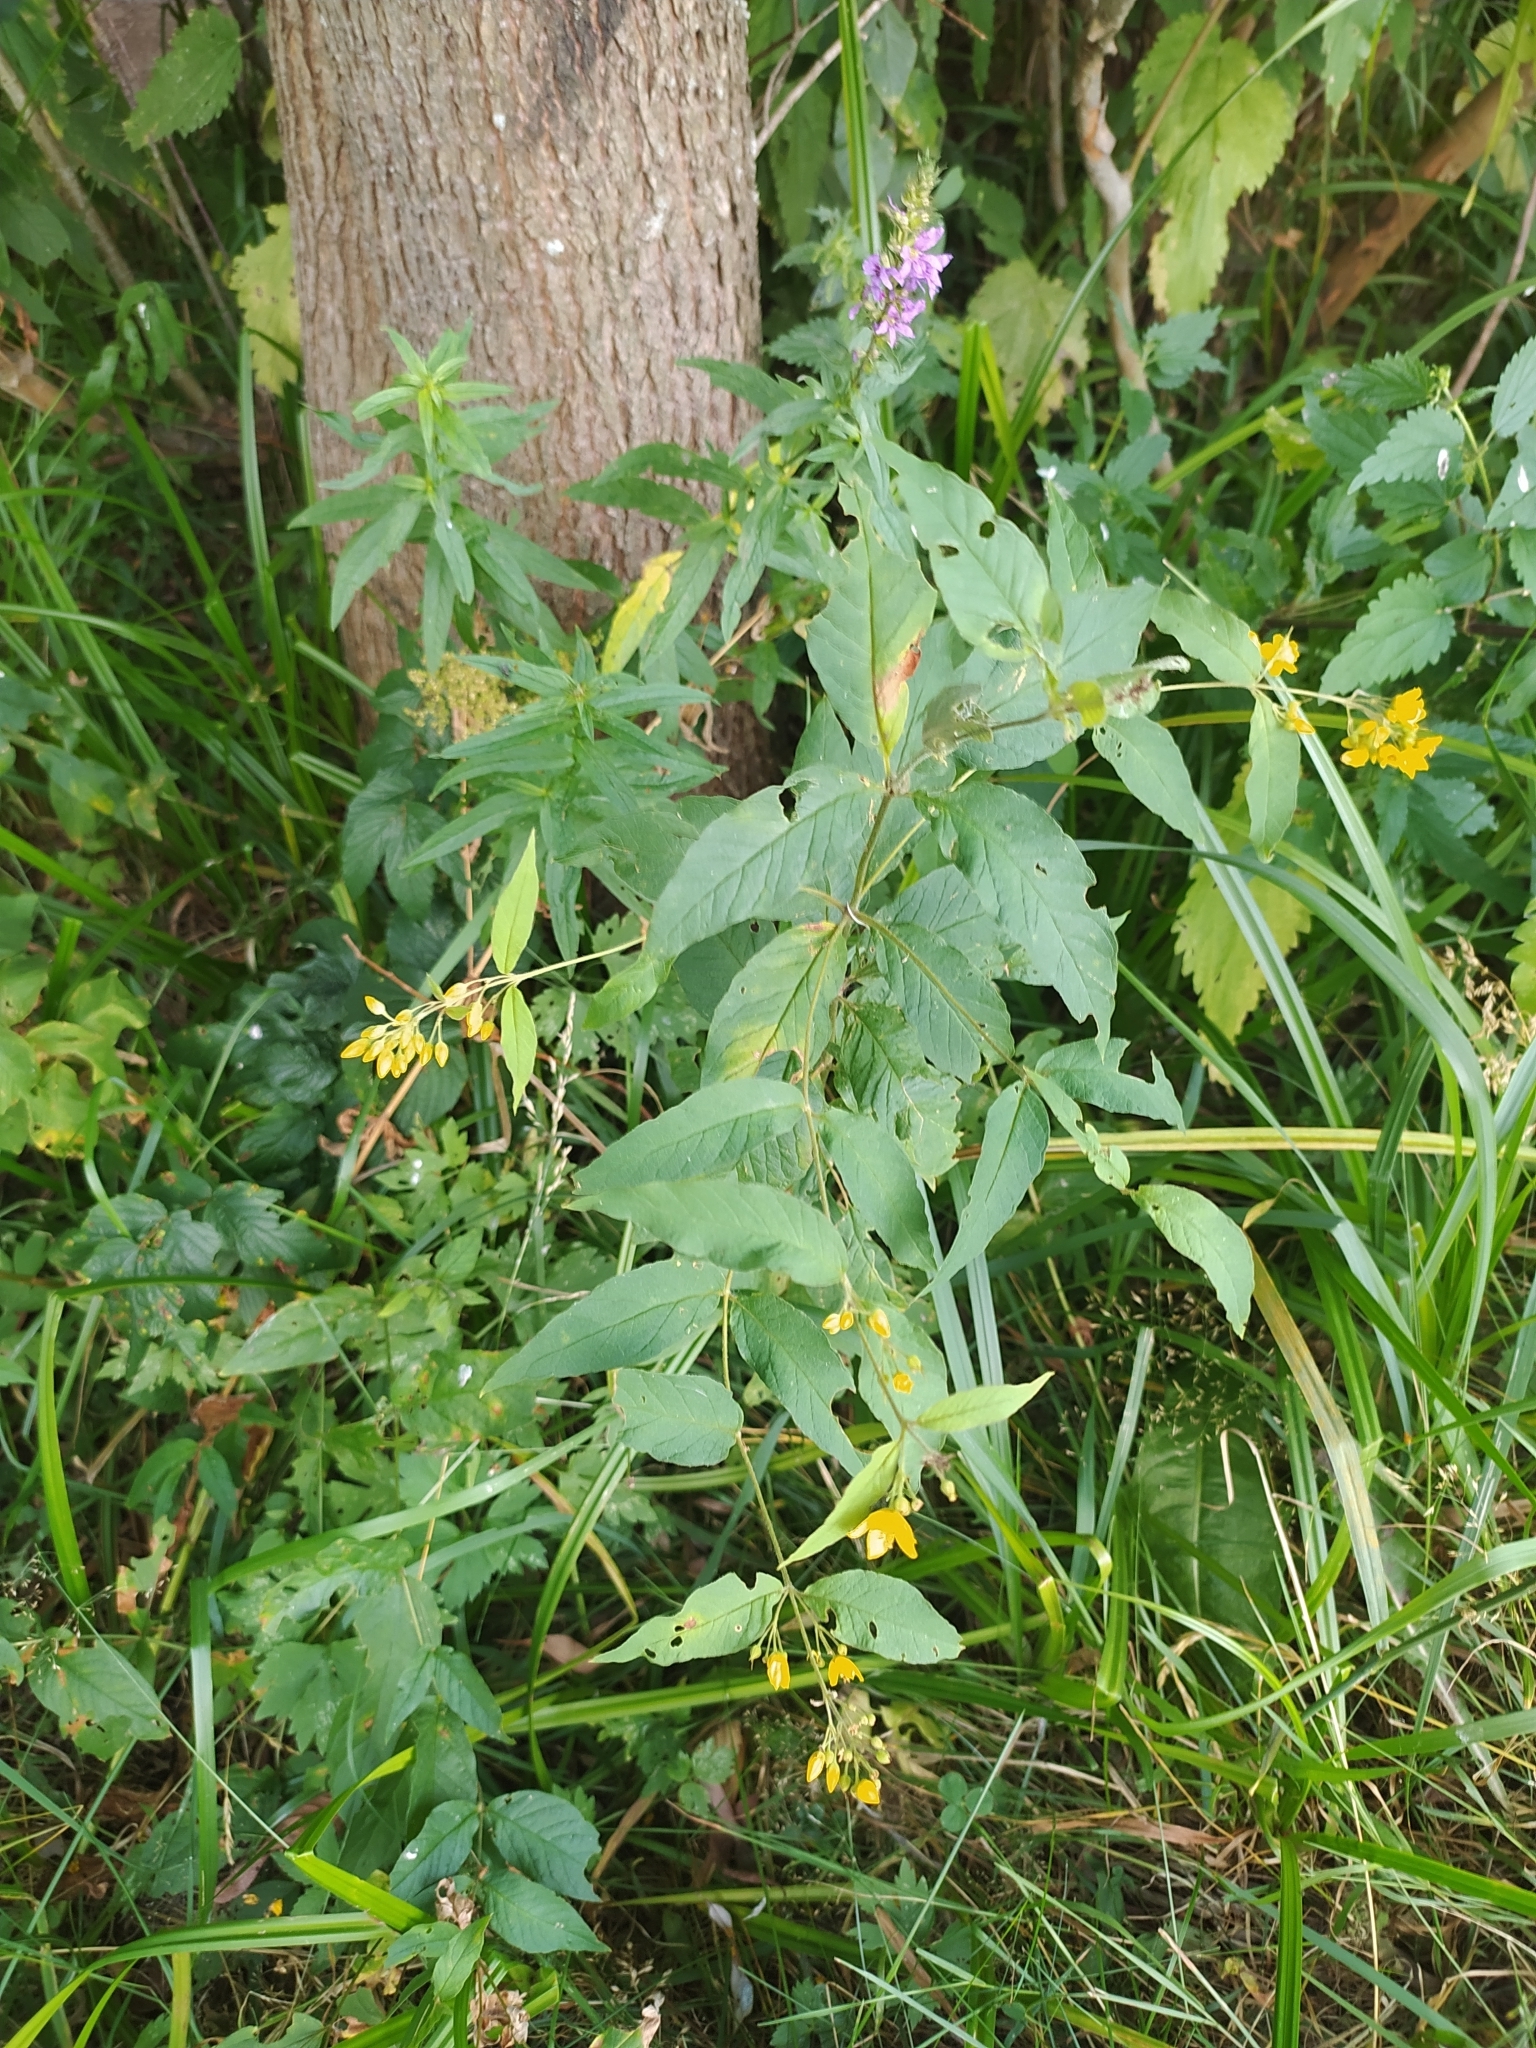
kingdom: Plantae
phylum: Tracheophyta
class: Magnoliopsida
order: Ericales
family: Primulaceae
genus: Lysimachia
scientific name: Lysimachia vulgaris
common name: Yellow loosestrife
